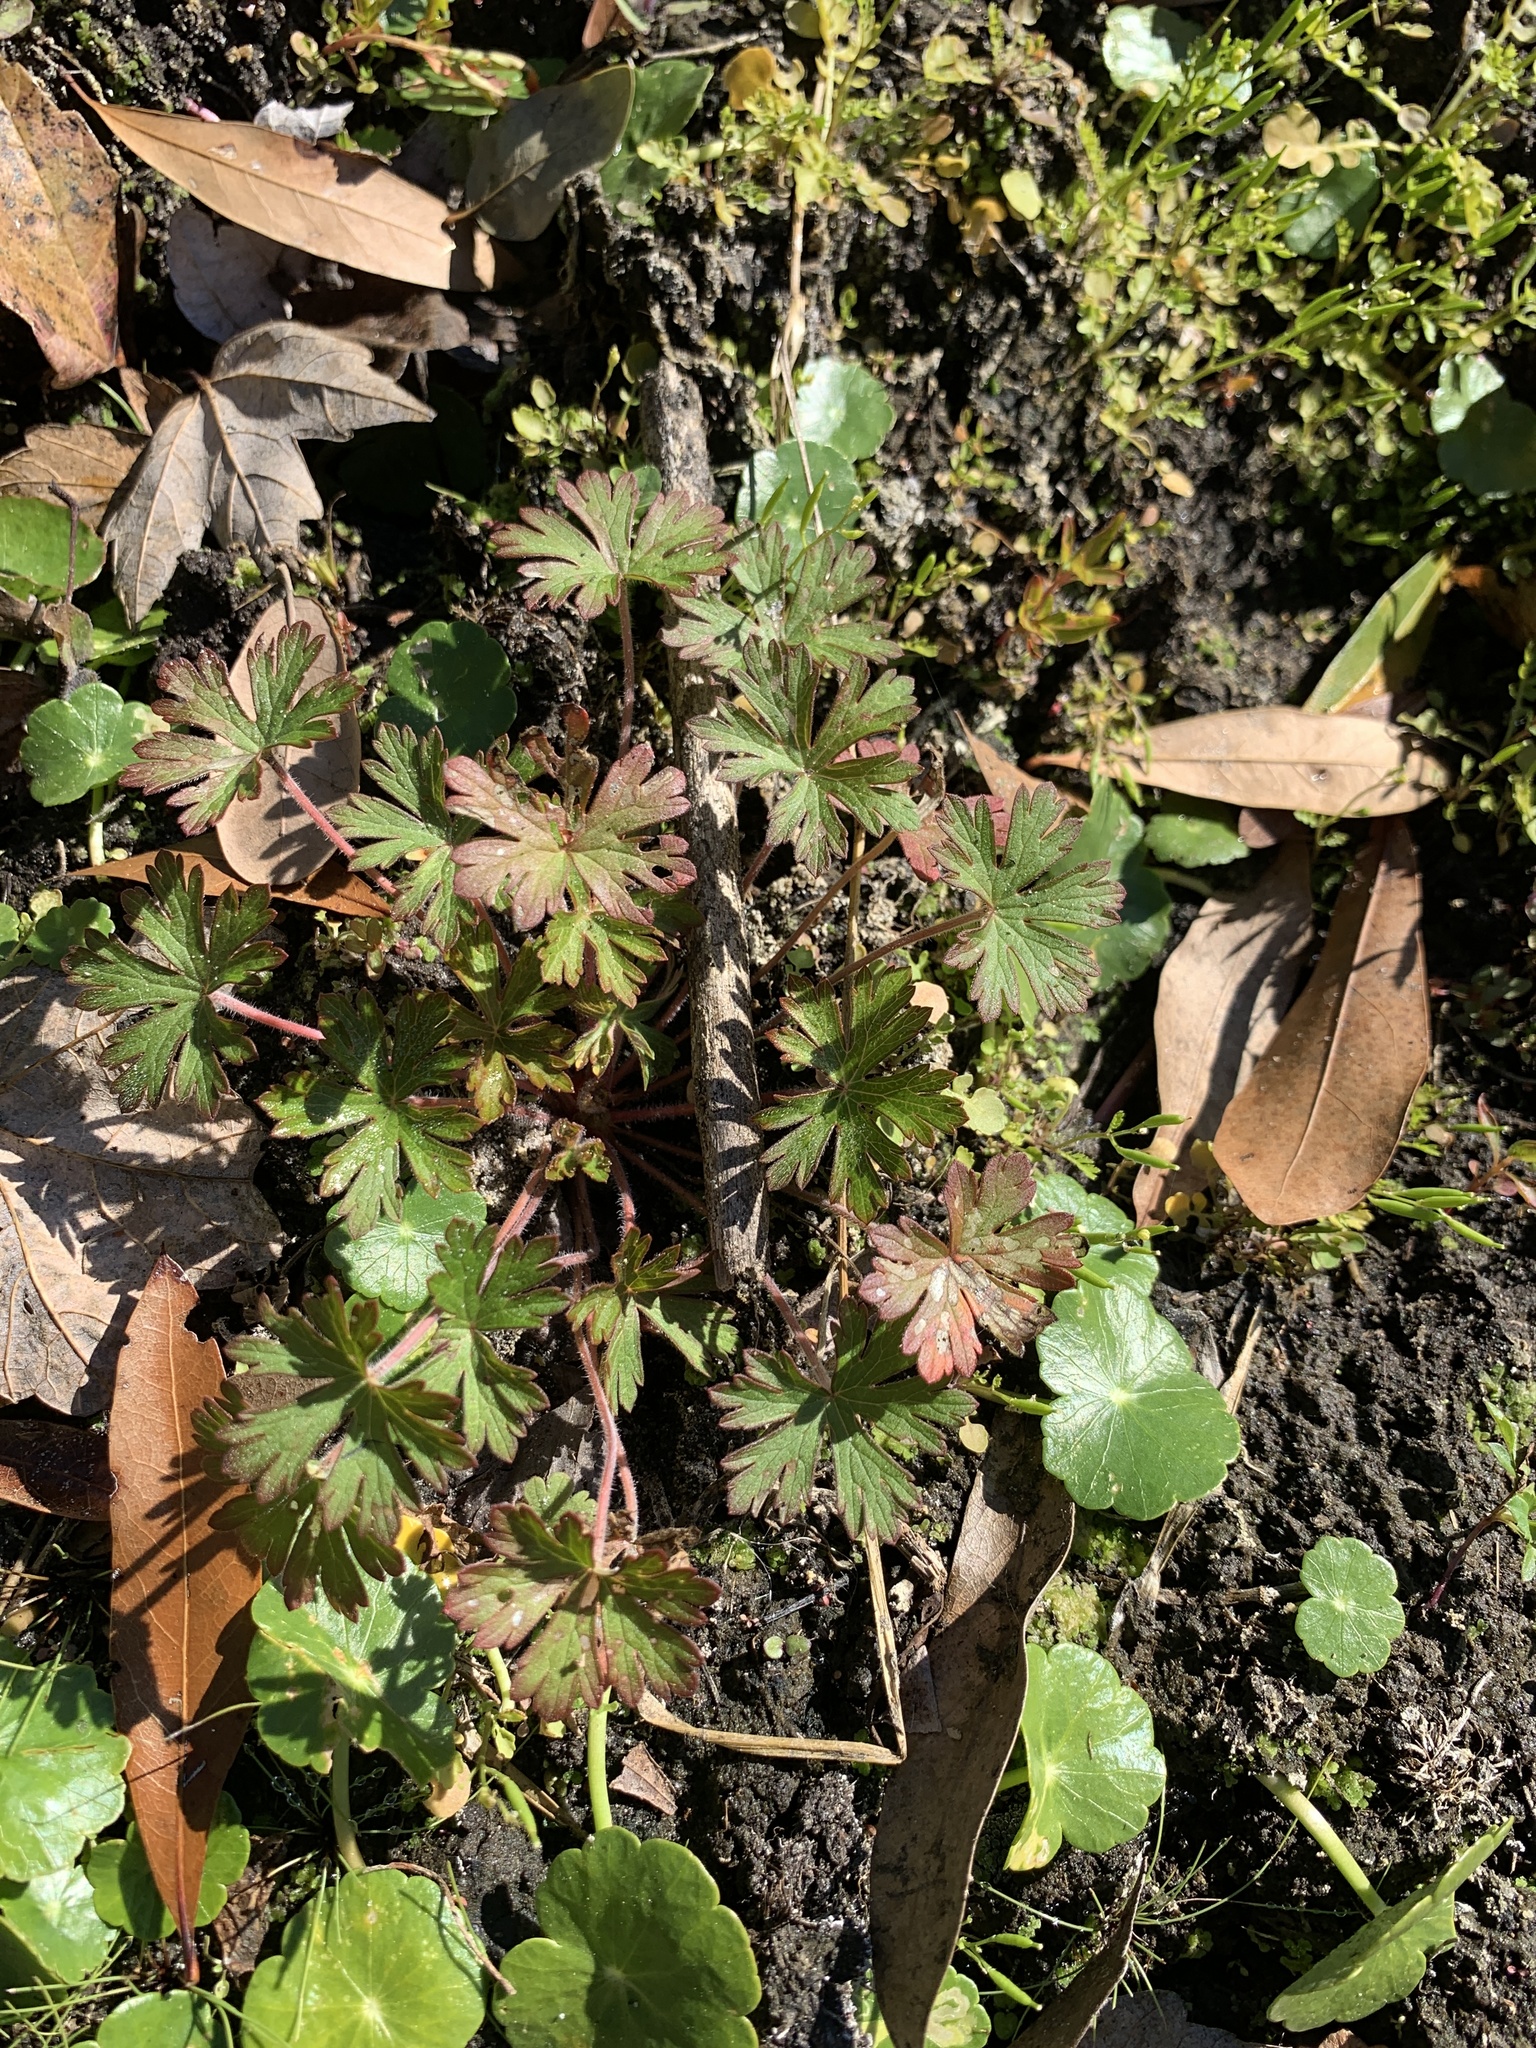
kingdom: Plantae
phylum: Tracheophyta
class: Magnoliopsida
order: Geraniales
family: Geraniaceae
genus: Geranium
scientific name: Geranium carolinianum
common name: Carolina crane's-bill
